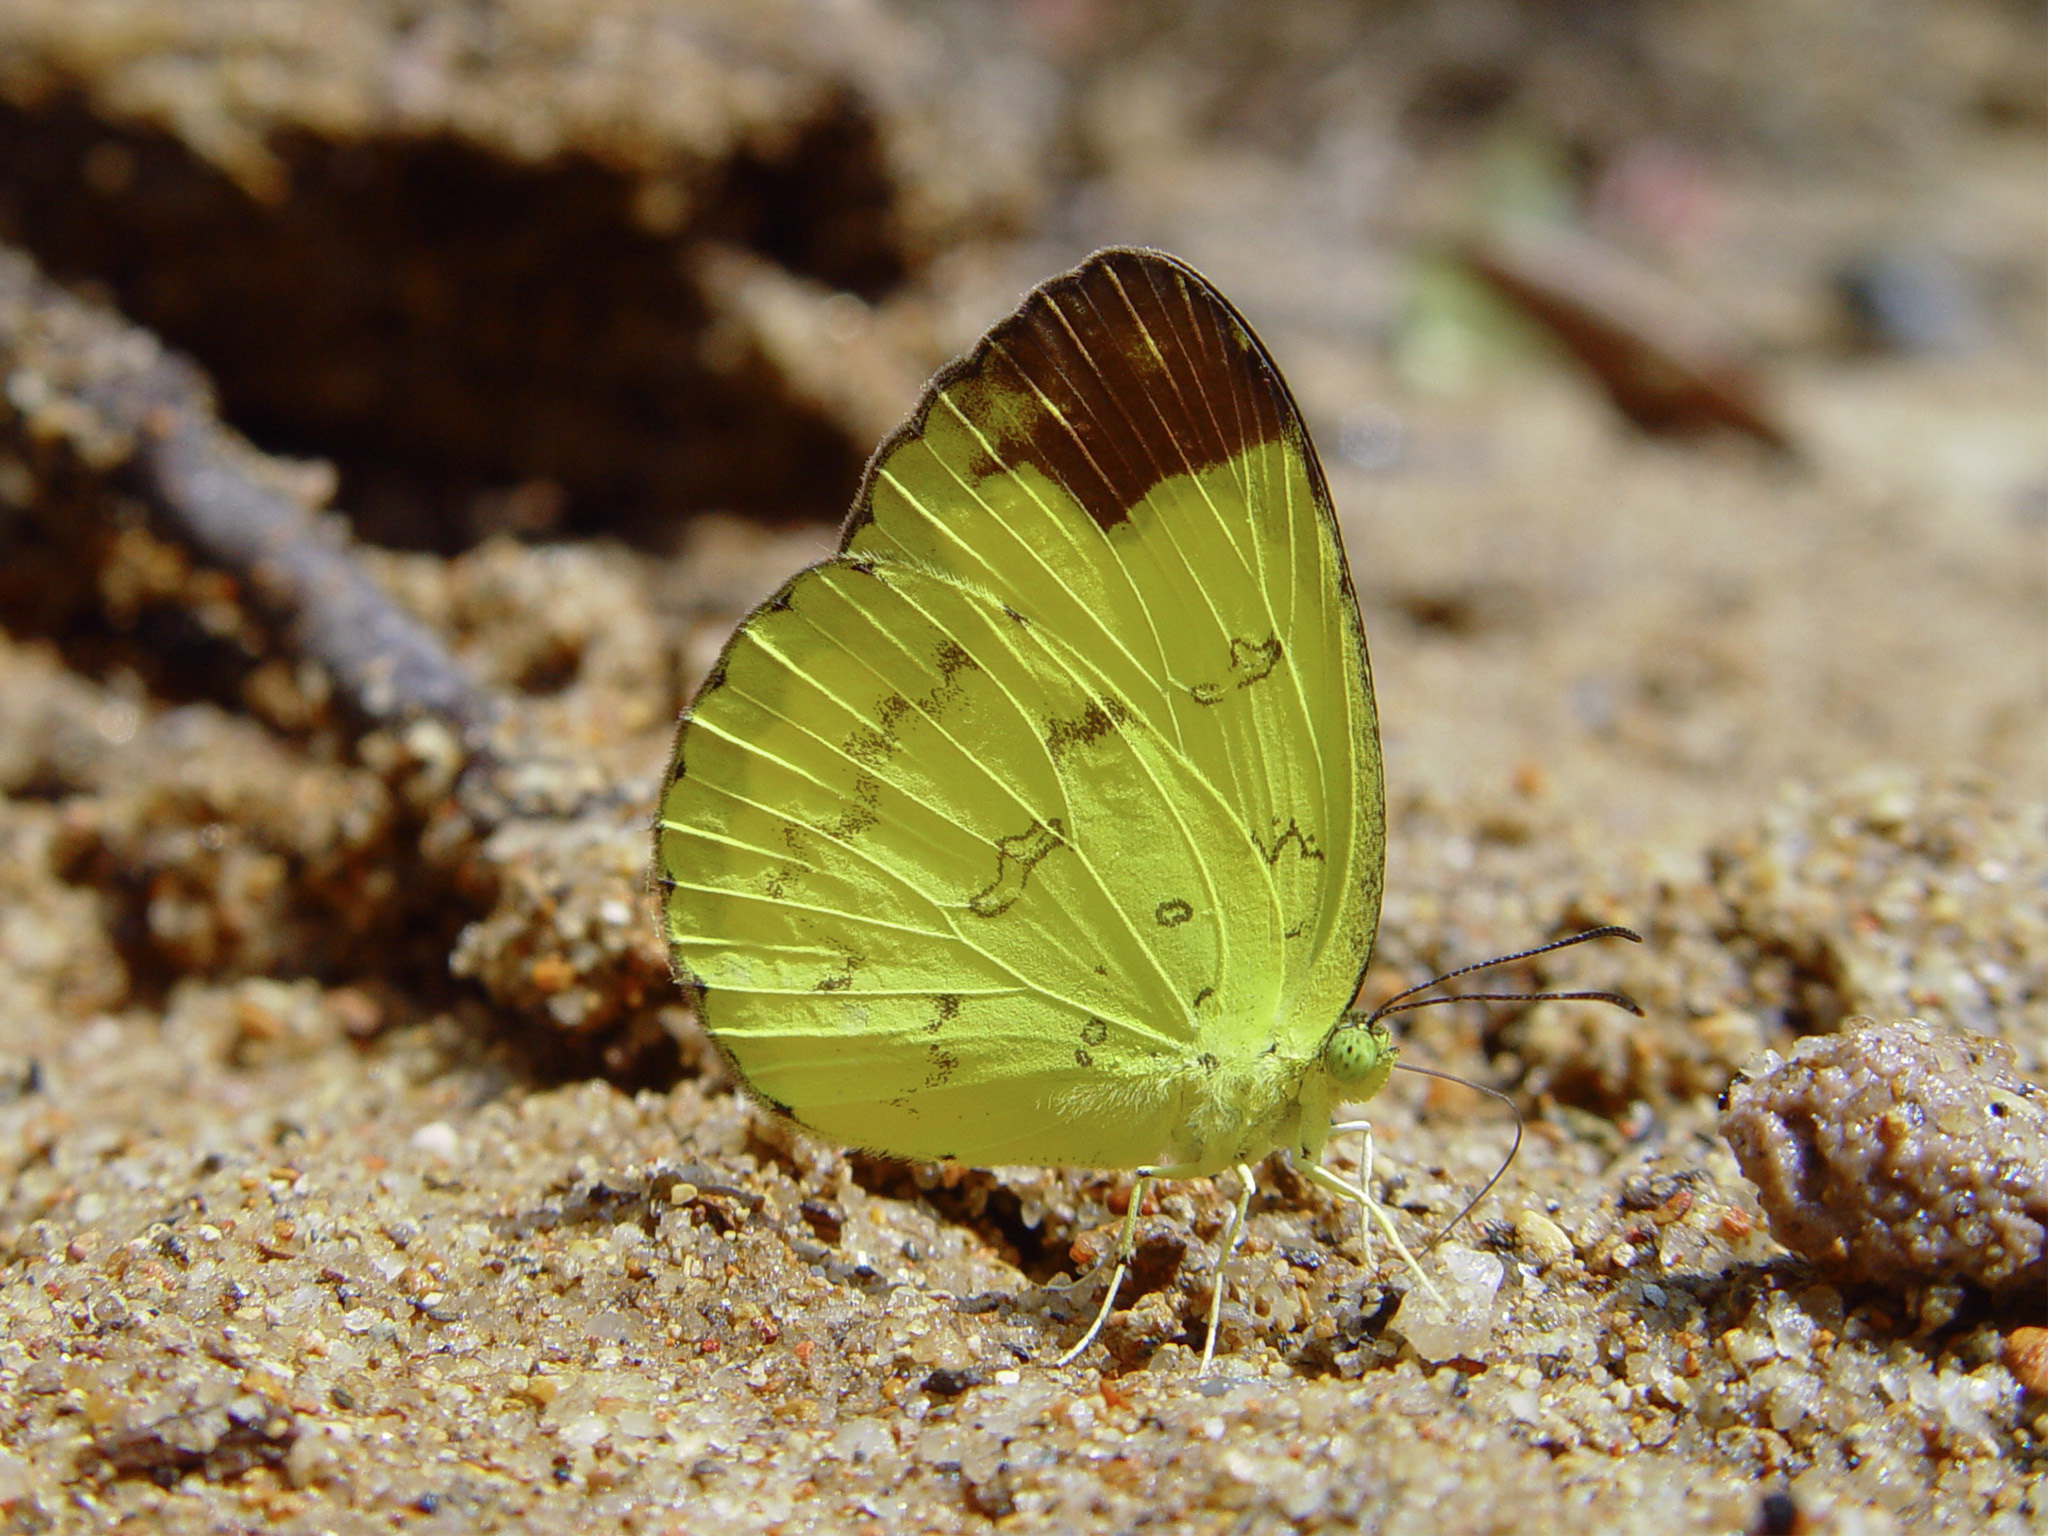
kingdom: Animalia
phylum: Arthropoda
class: Insecta
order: Lepidoptera
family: Pieridae
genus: Eurema
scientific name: Eurema sari
